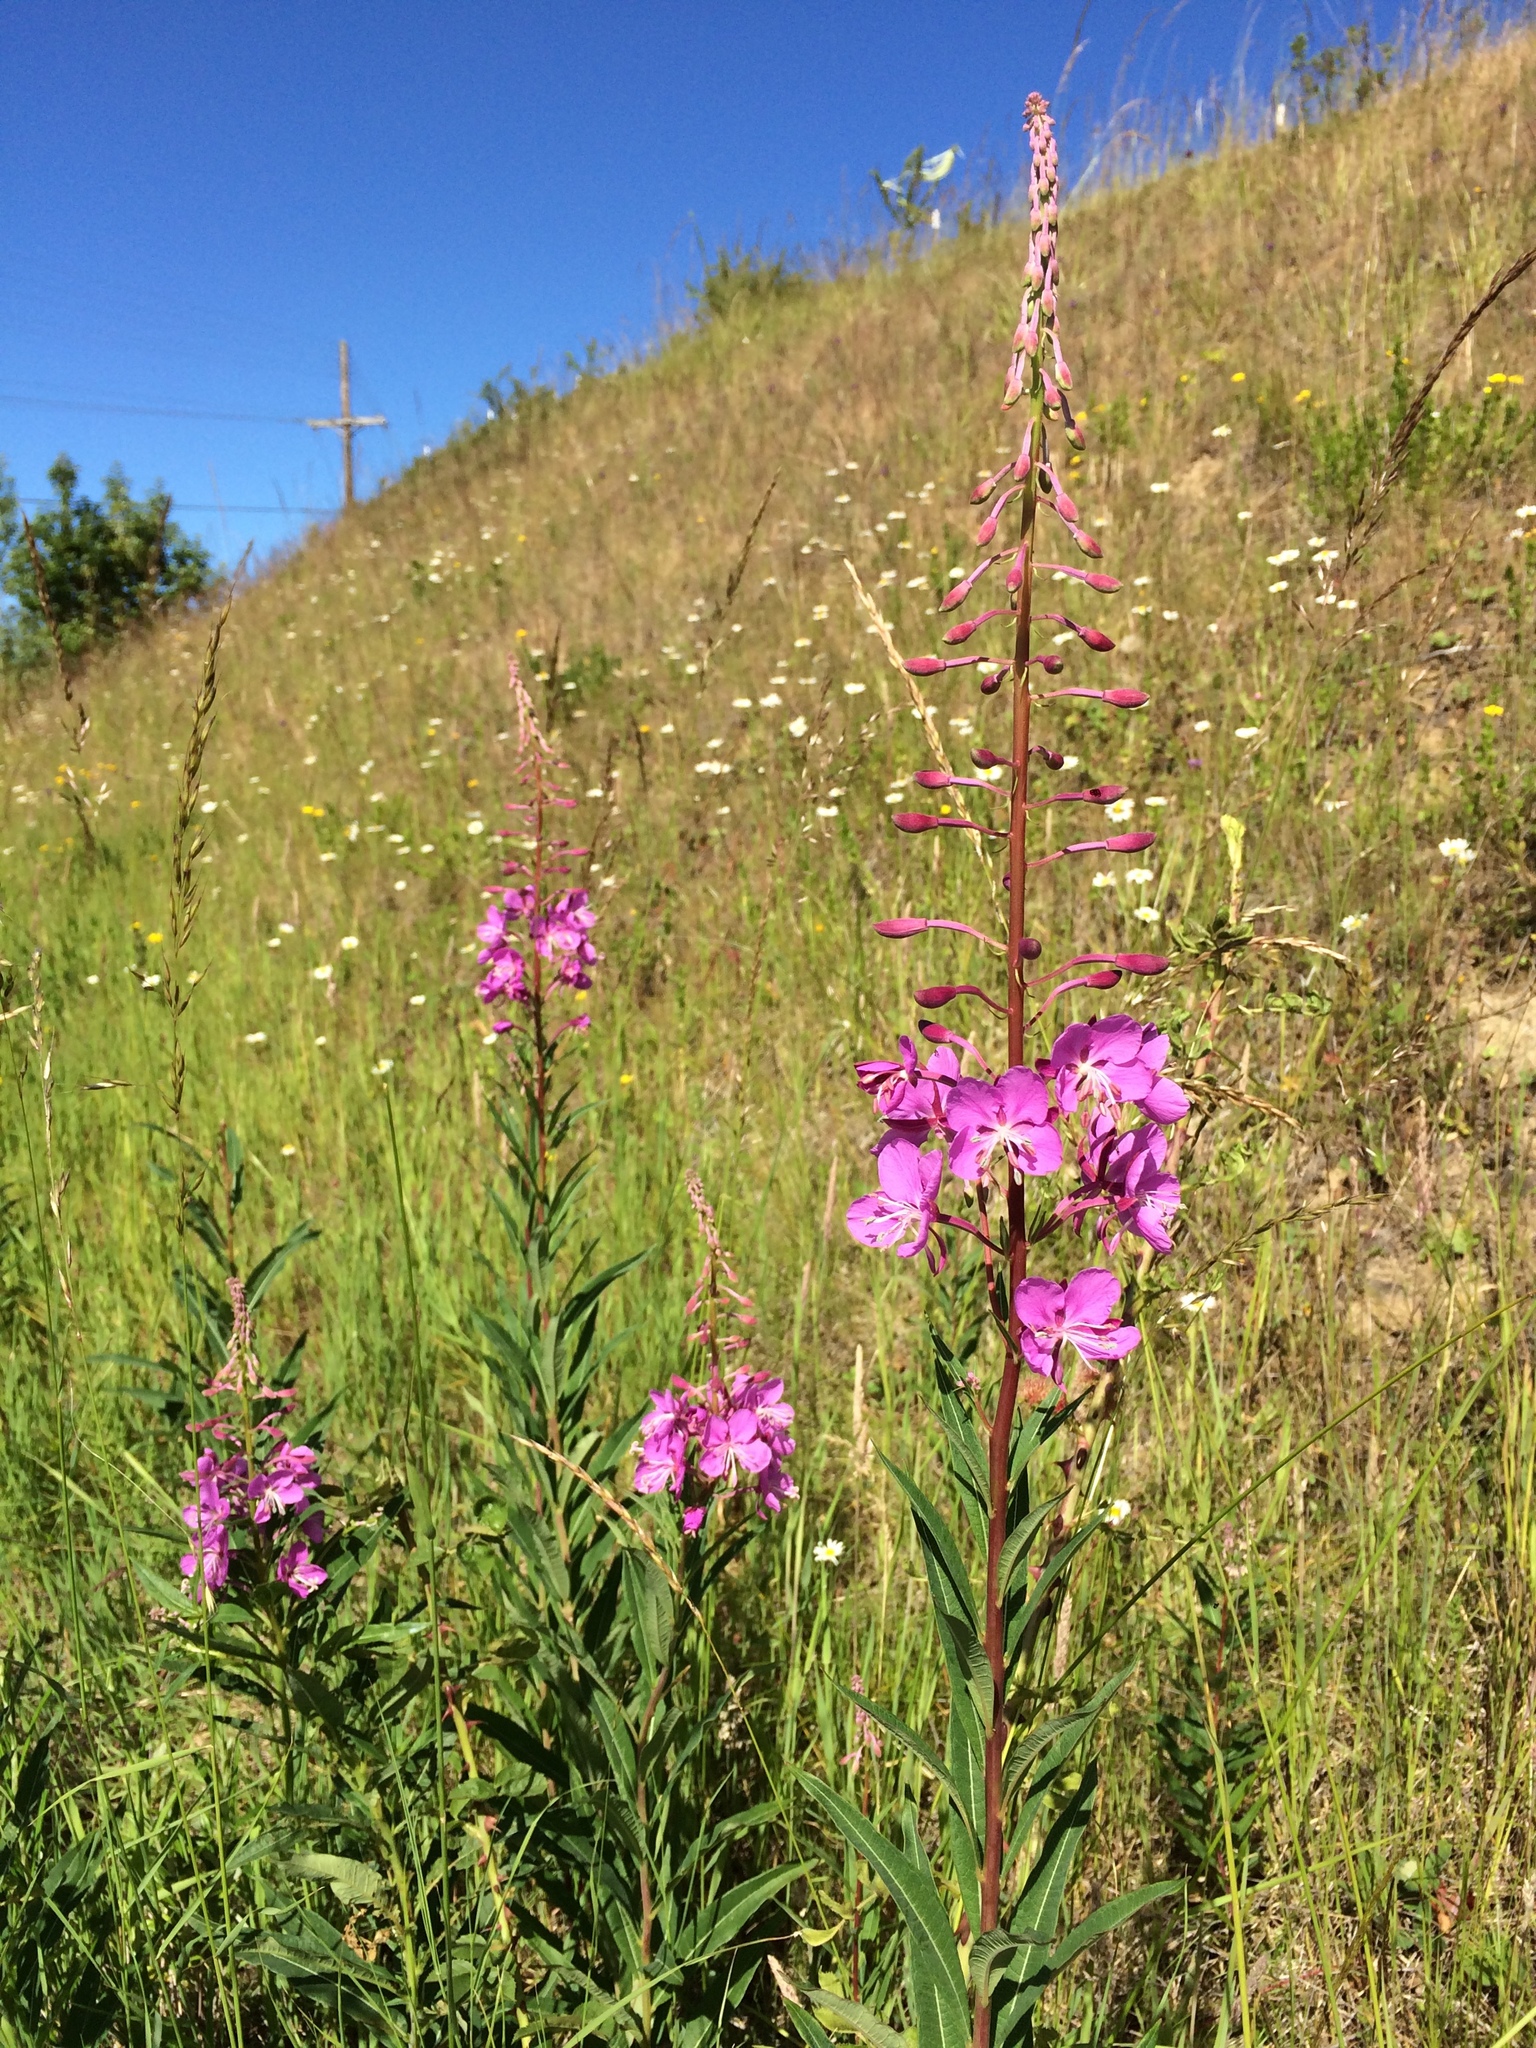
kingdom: Plantae
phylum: Tracheophyta
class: Magnoliopsida
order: Myrtales
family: Onagraceae
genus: Chamaenerion
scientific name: Chamaenerion angustifolium
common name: Fireweed
